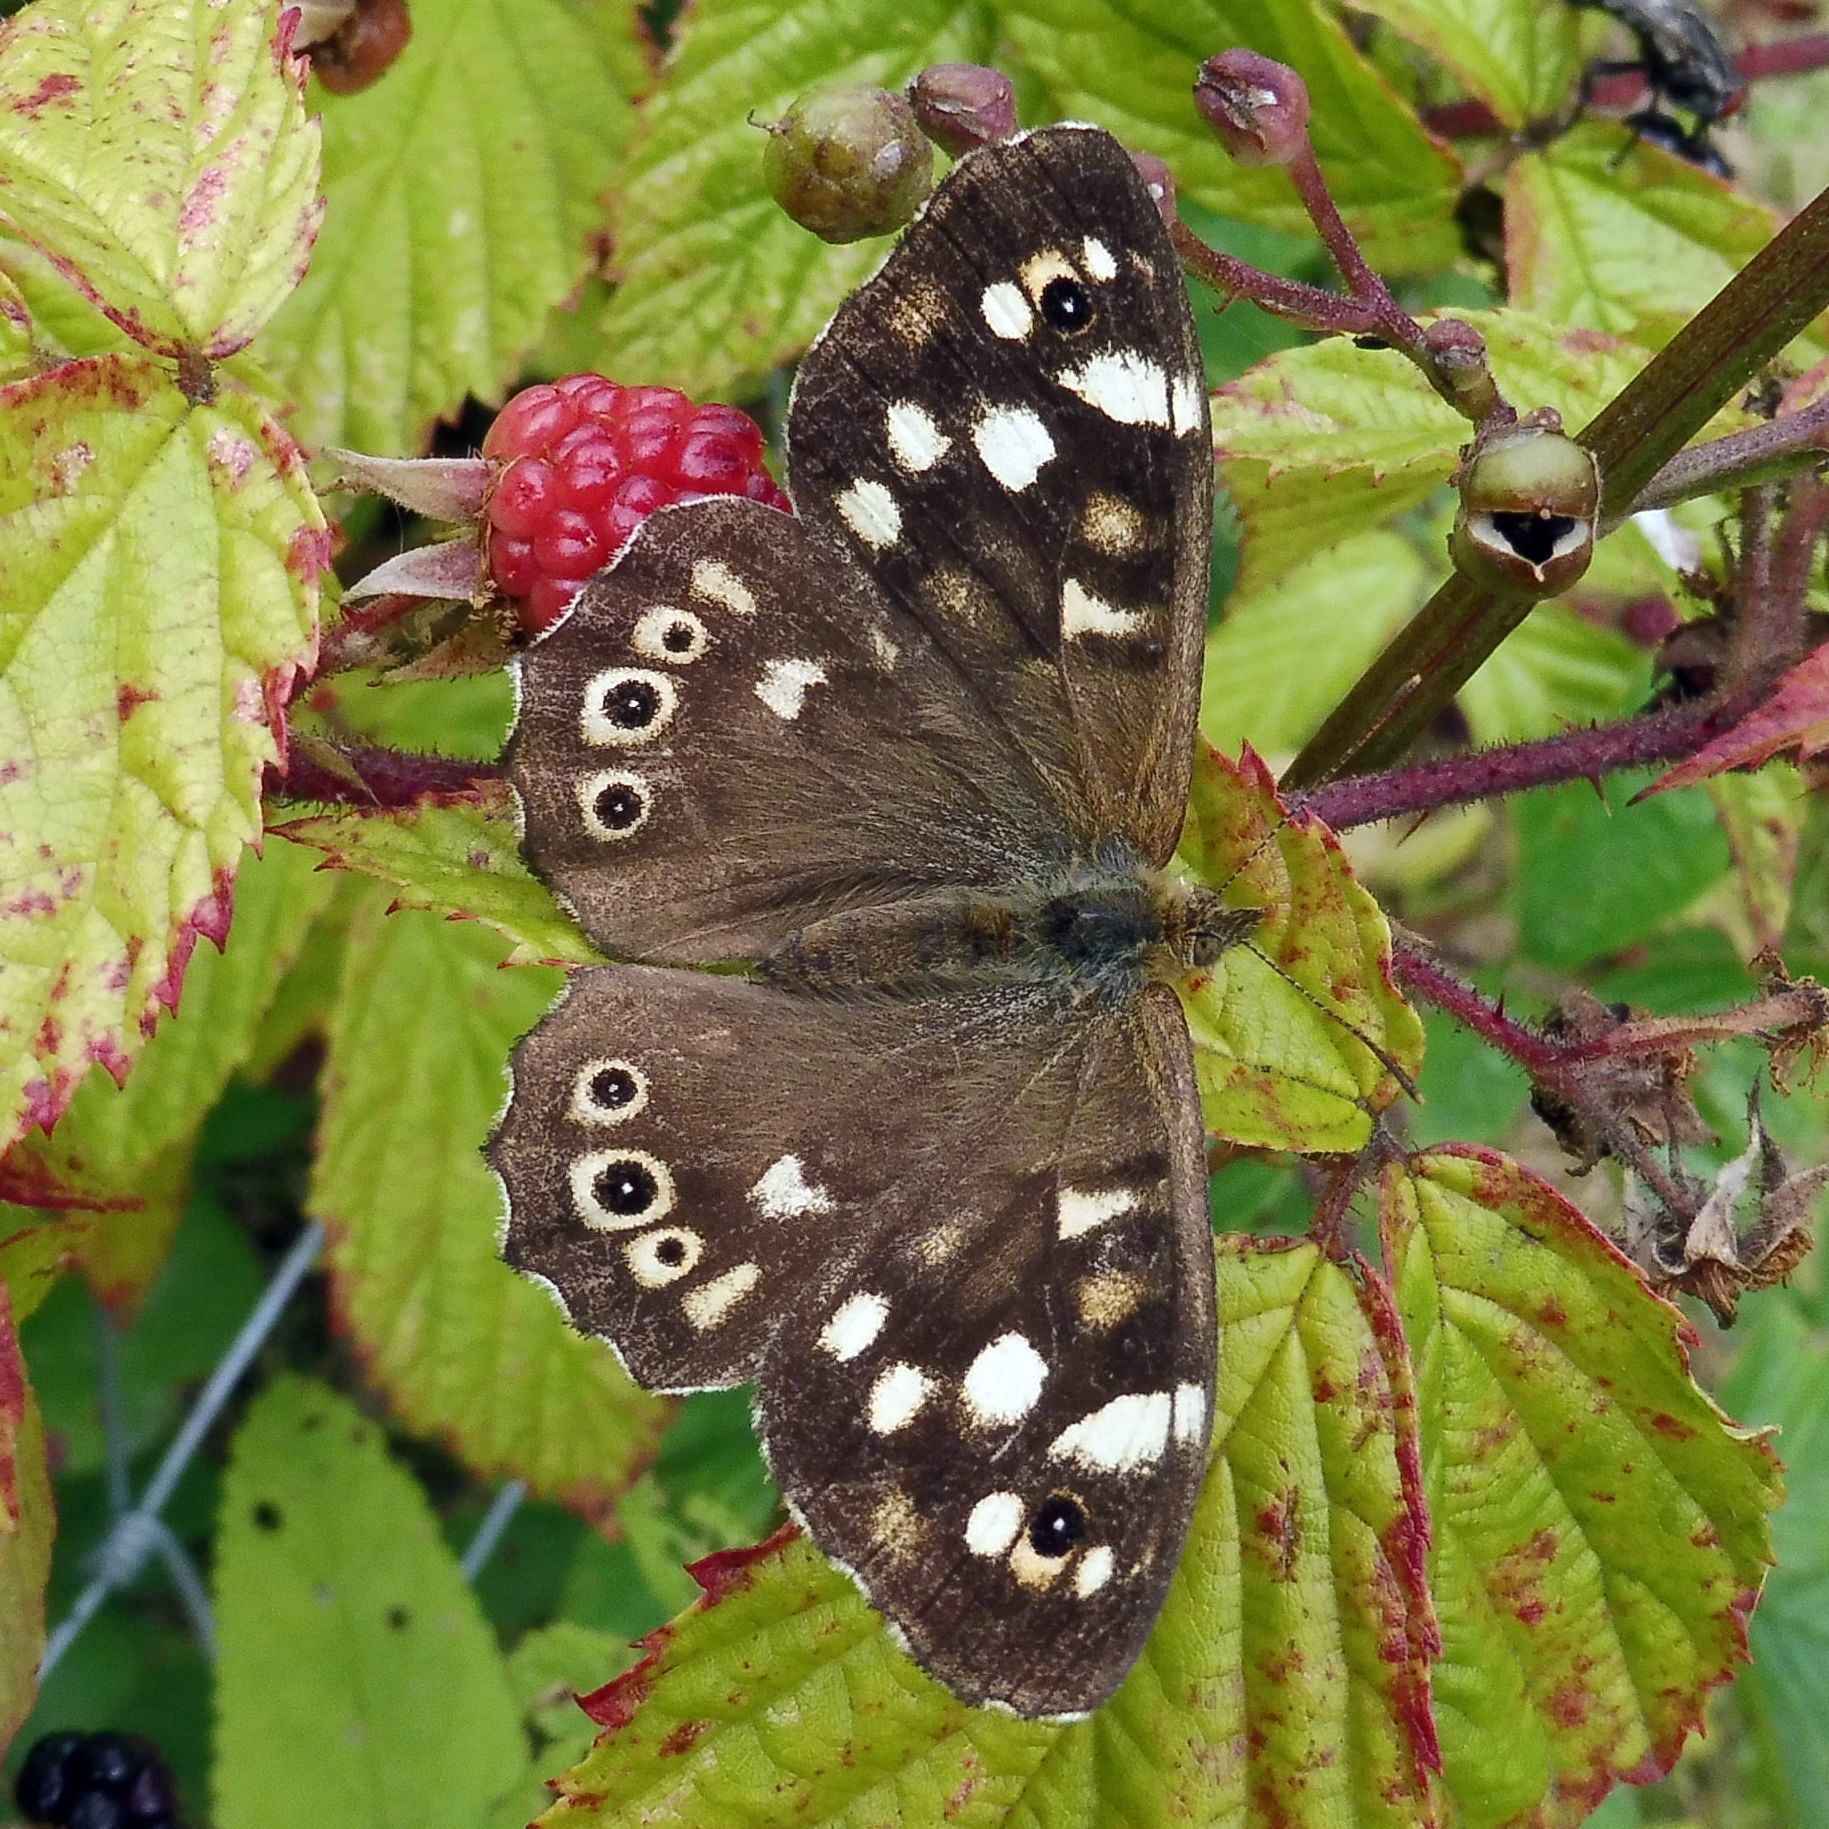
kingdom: Animalia
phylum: Arthropoda
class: Insecta
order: Lepidoptera
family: Nymphalidae
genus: Pararge
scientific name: Pararge aegeria
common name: Speckled wood
